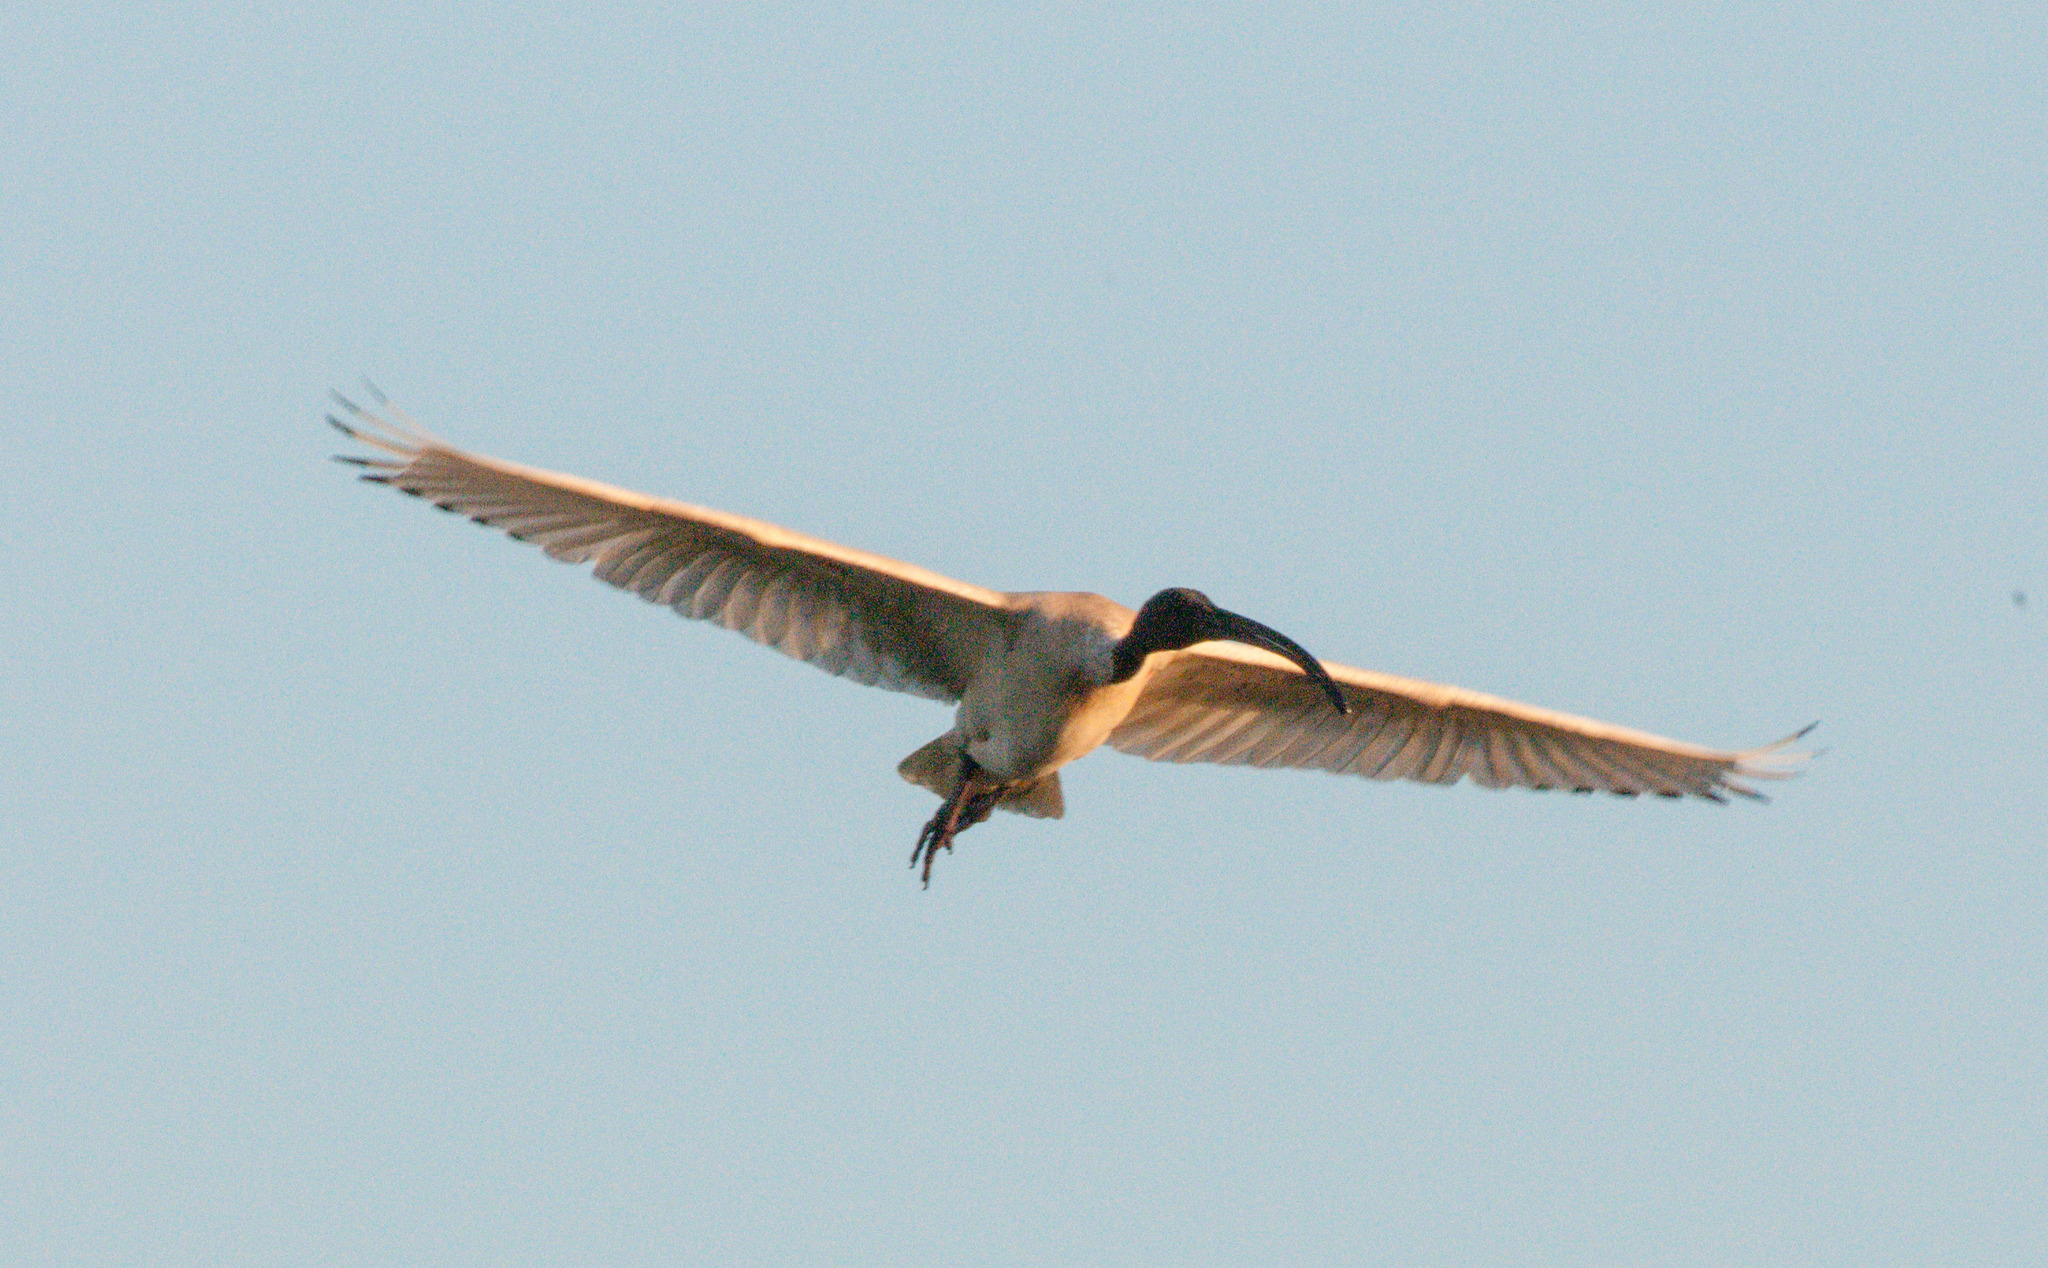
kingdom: Animalia
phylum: Chordata
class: Aves
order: Pelecaniformes
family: Threskiornithidae
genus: Threskiornis
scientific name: Threskiornis molucca
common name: Australian white ibis
